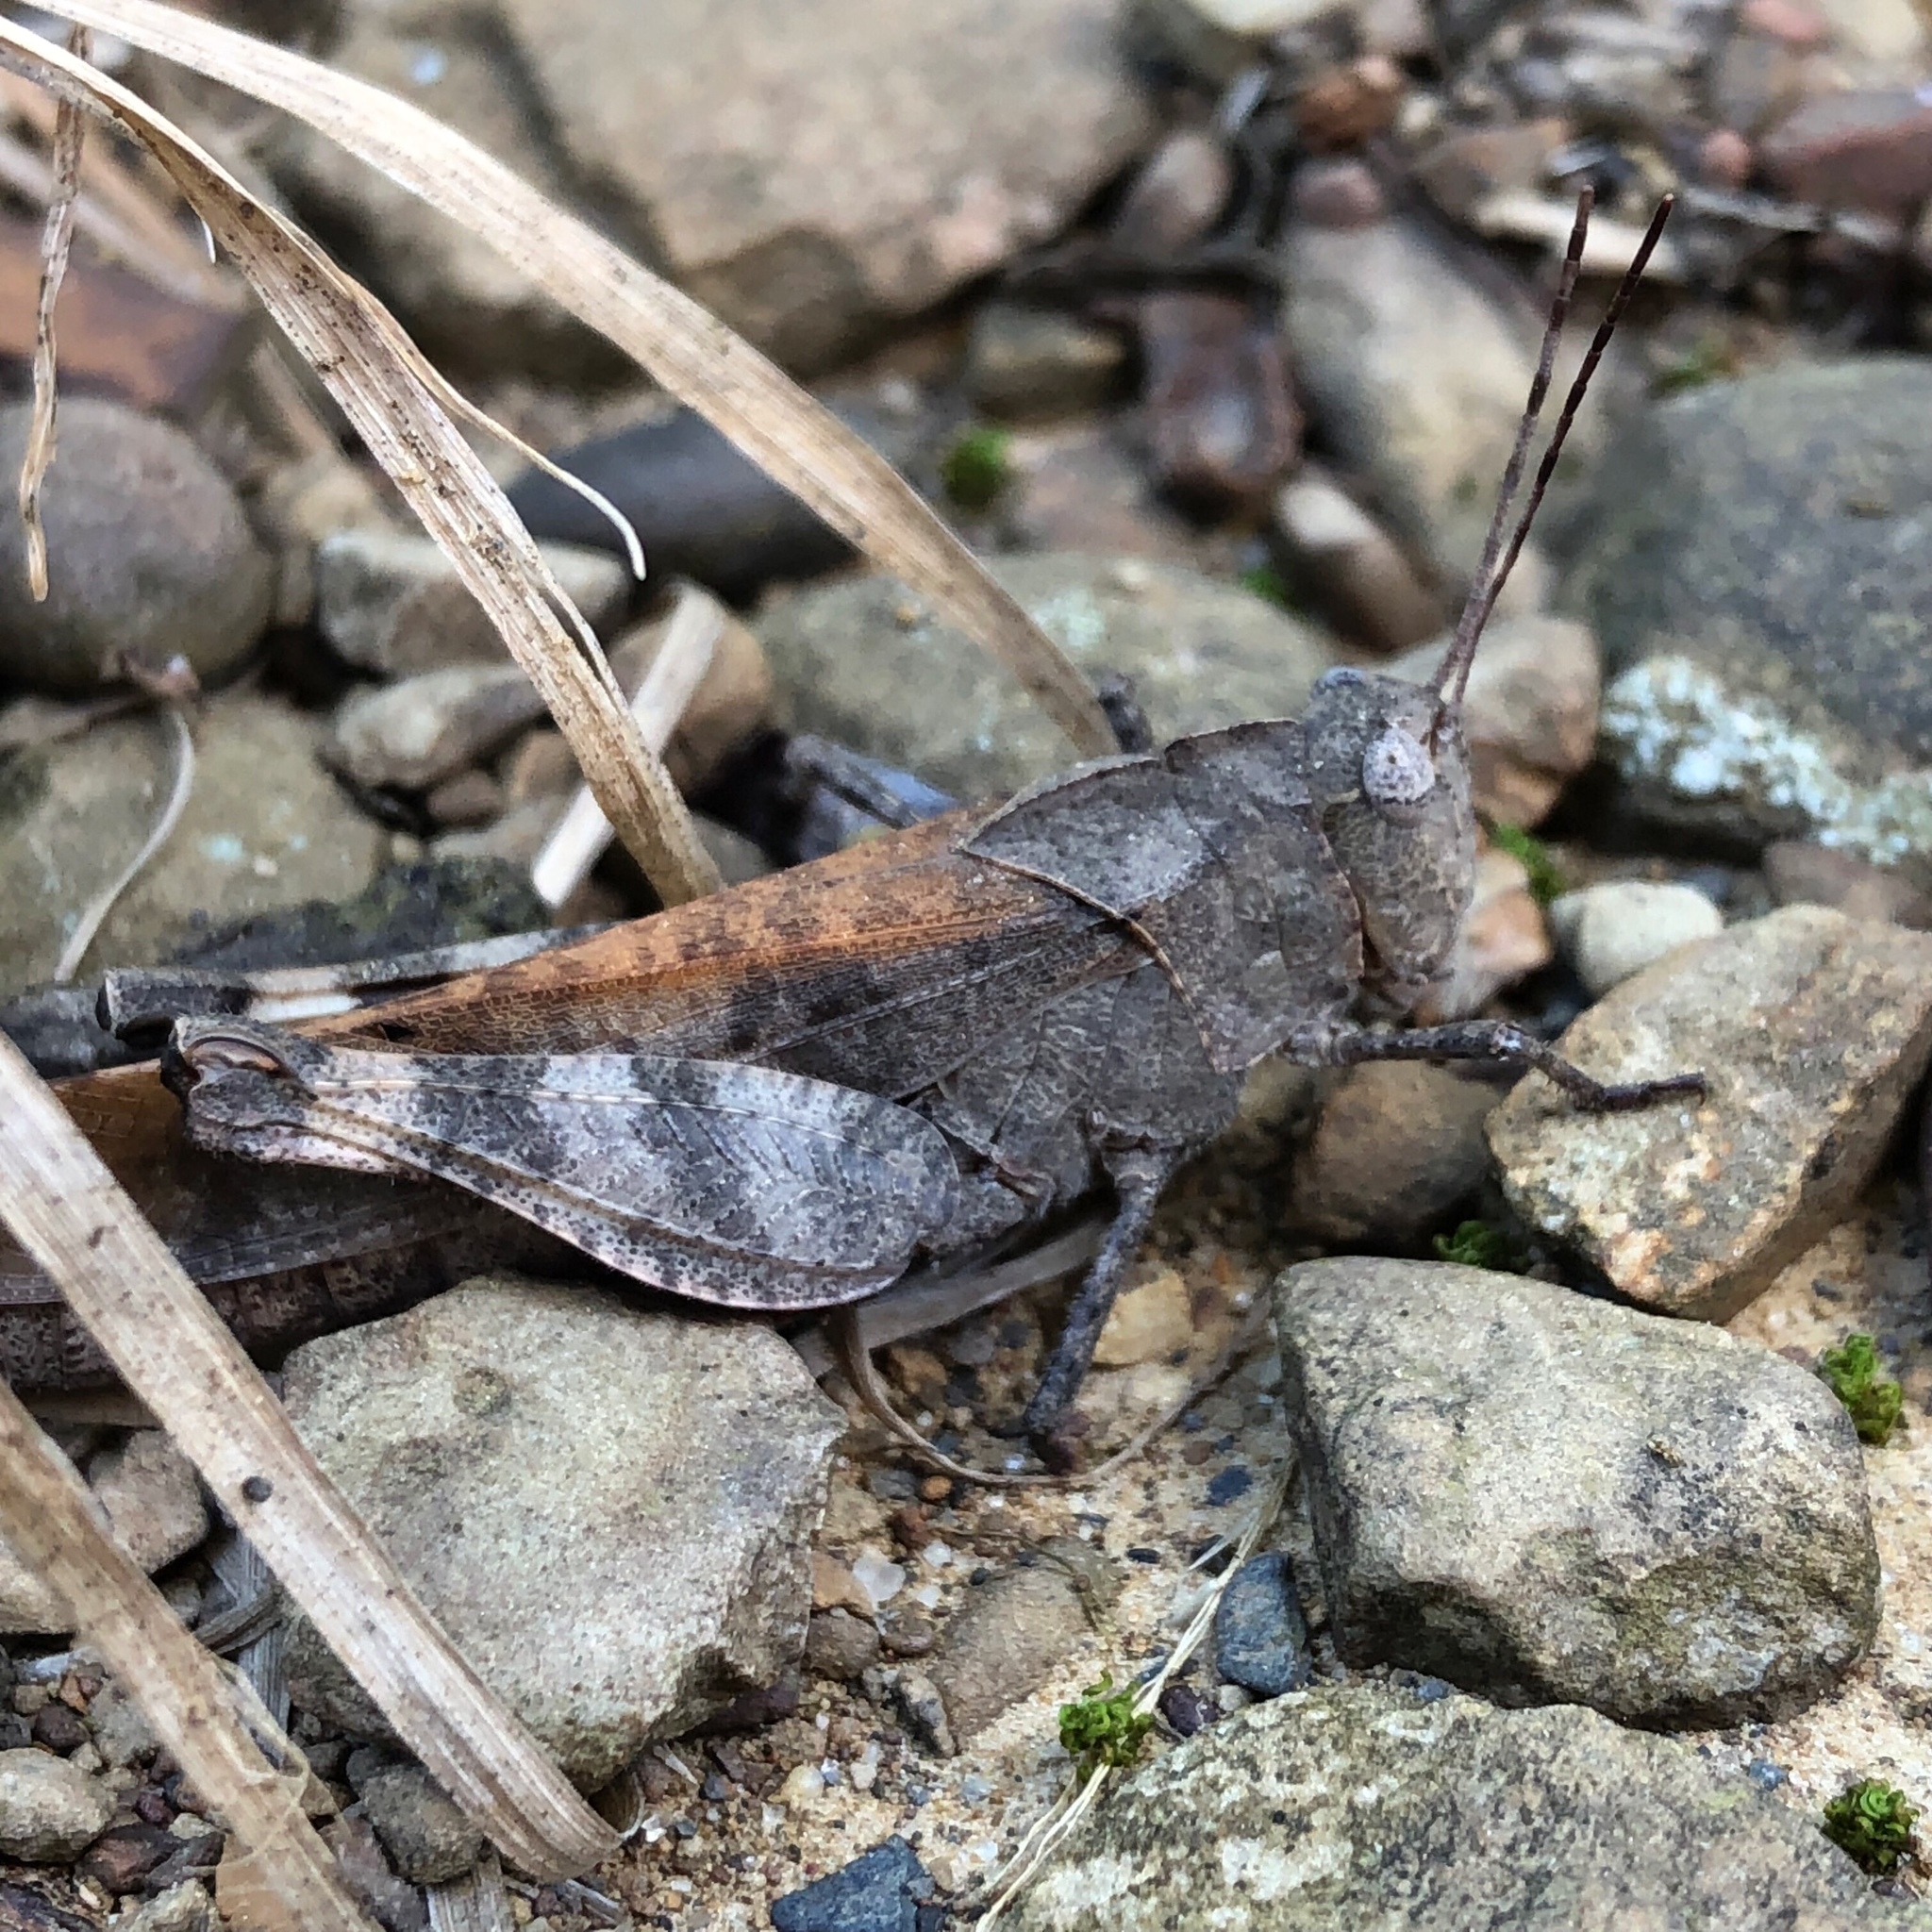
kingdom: Animalia
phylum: Arthropoda
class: Insecta
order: Orthoptera
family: Acrididae
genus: Spharagemon
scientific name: Spharagemon bolli
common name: Boll's grasshopper
